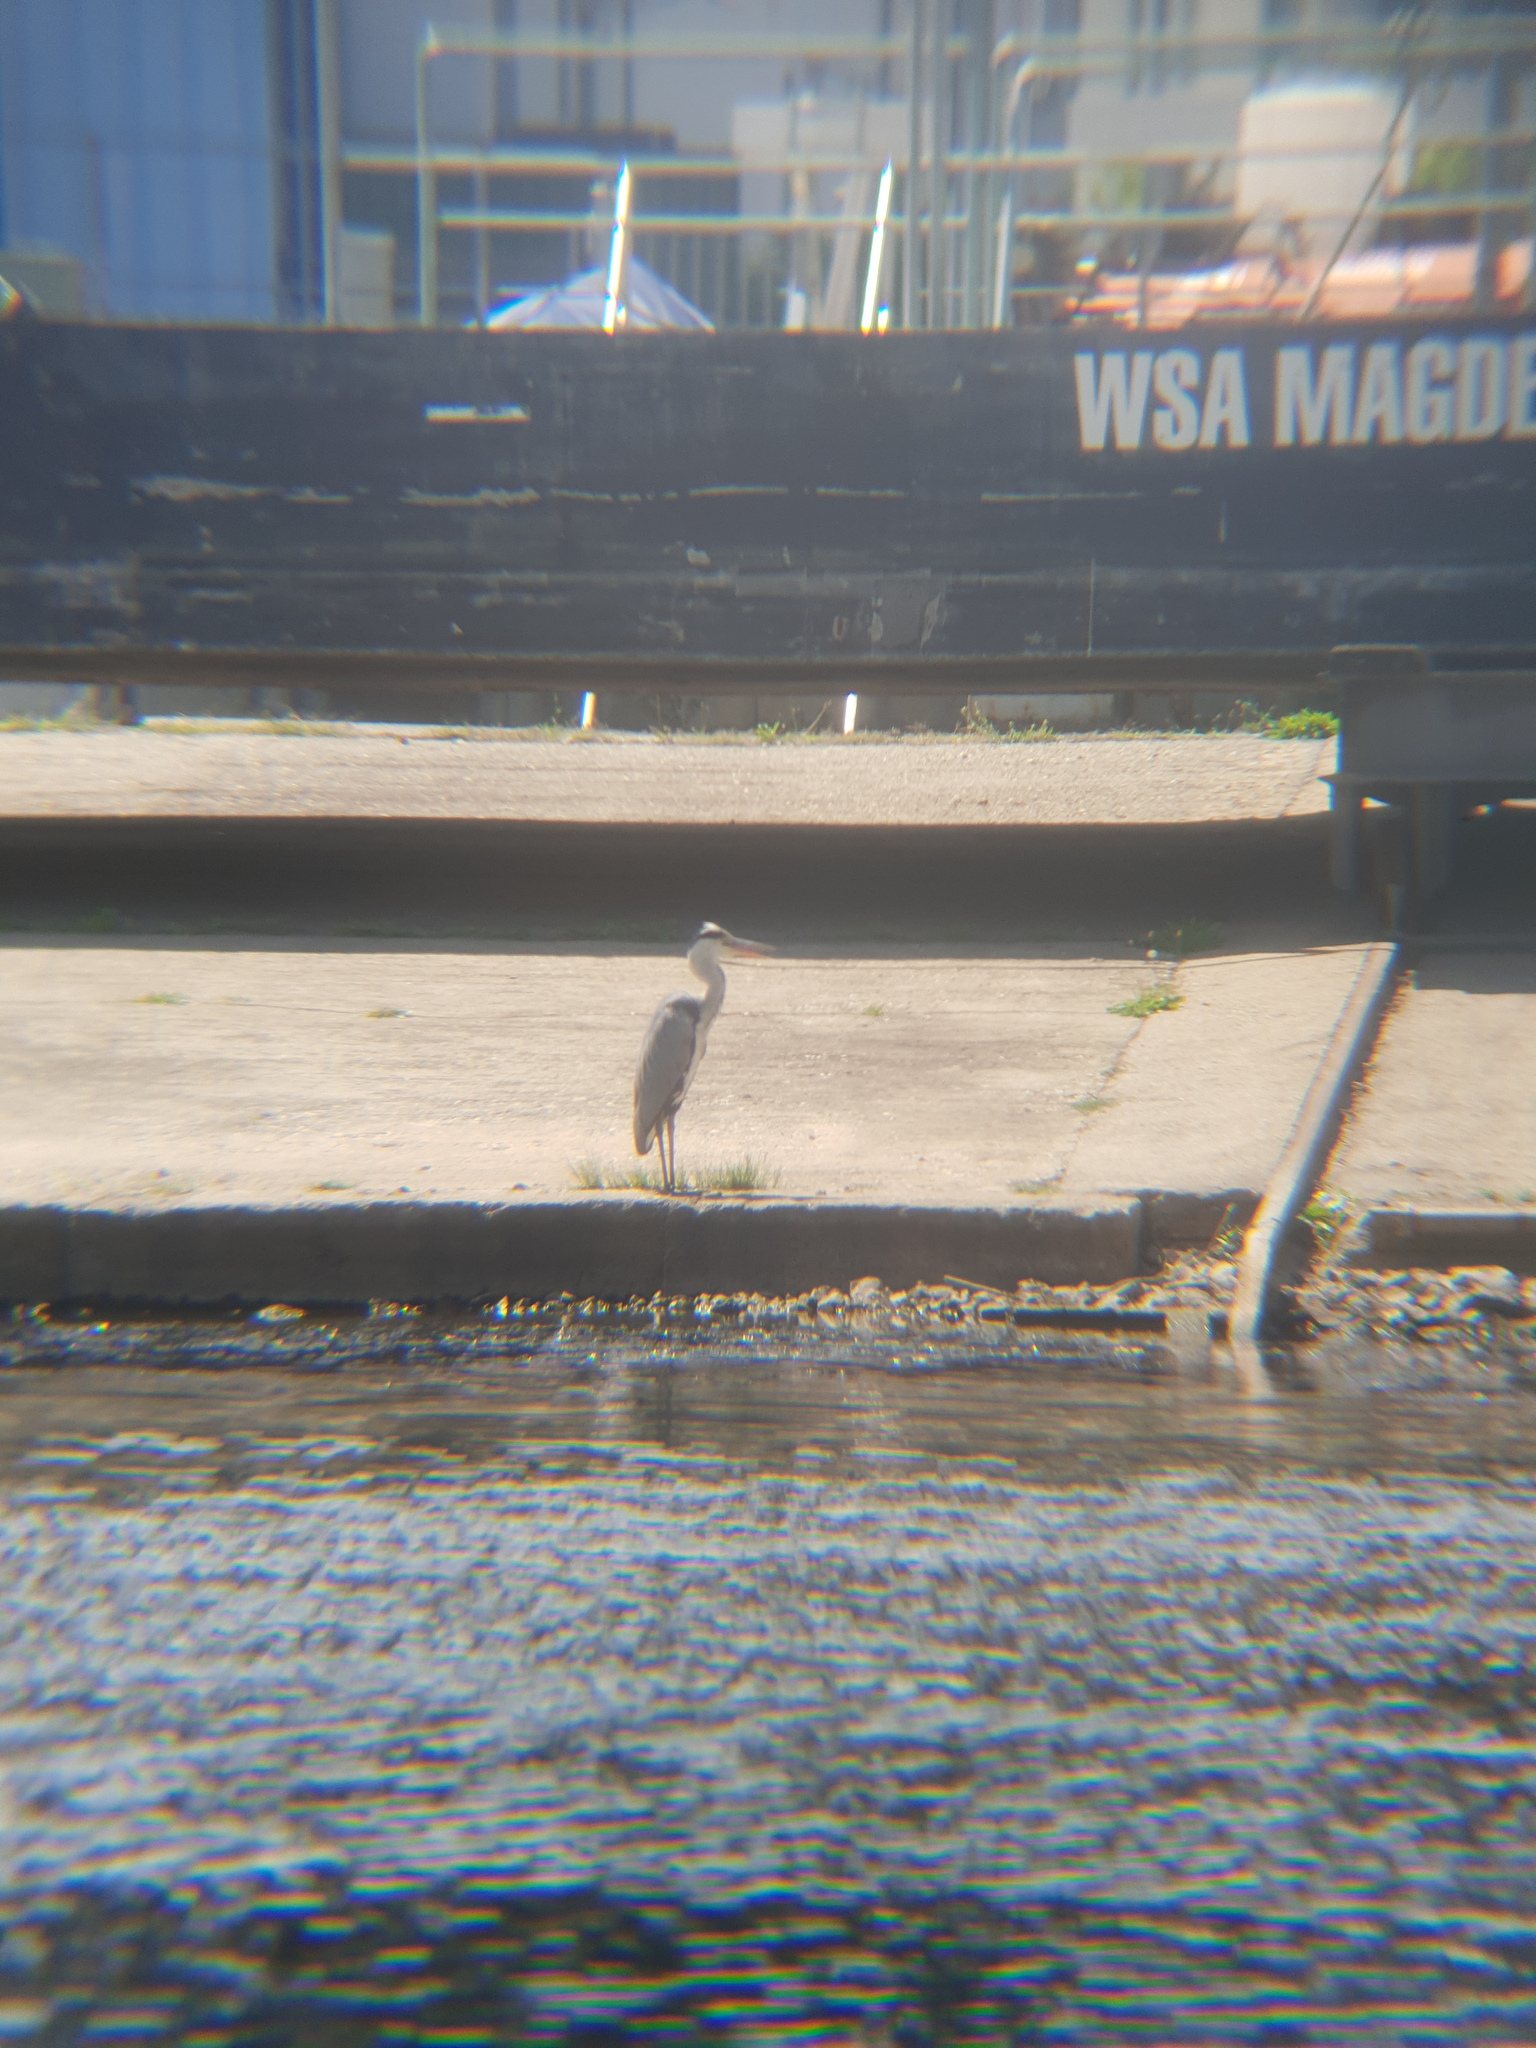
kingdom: Animalia
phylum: Chordata
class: Aves
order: Pelecaniformes
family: Ardeidae
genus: Ardea
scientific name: Ardea cinerea
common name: Grey heron
